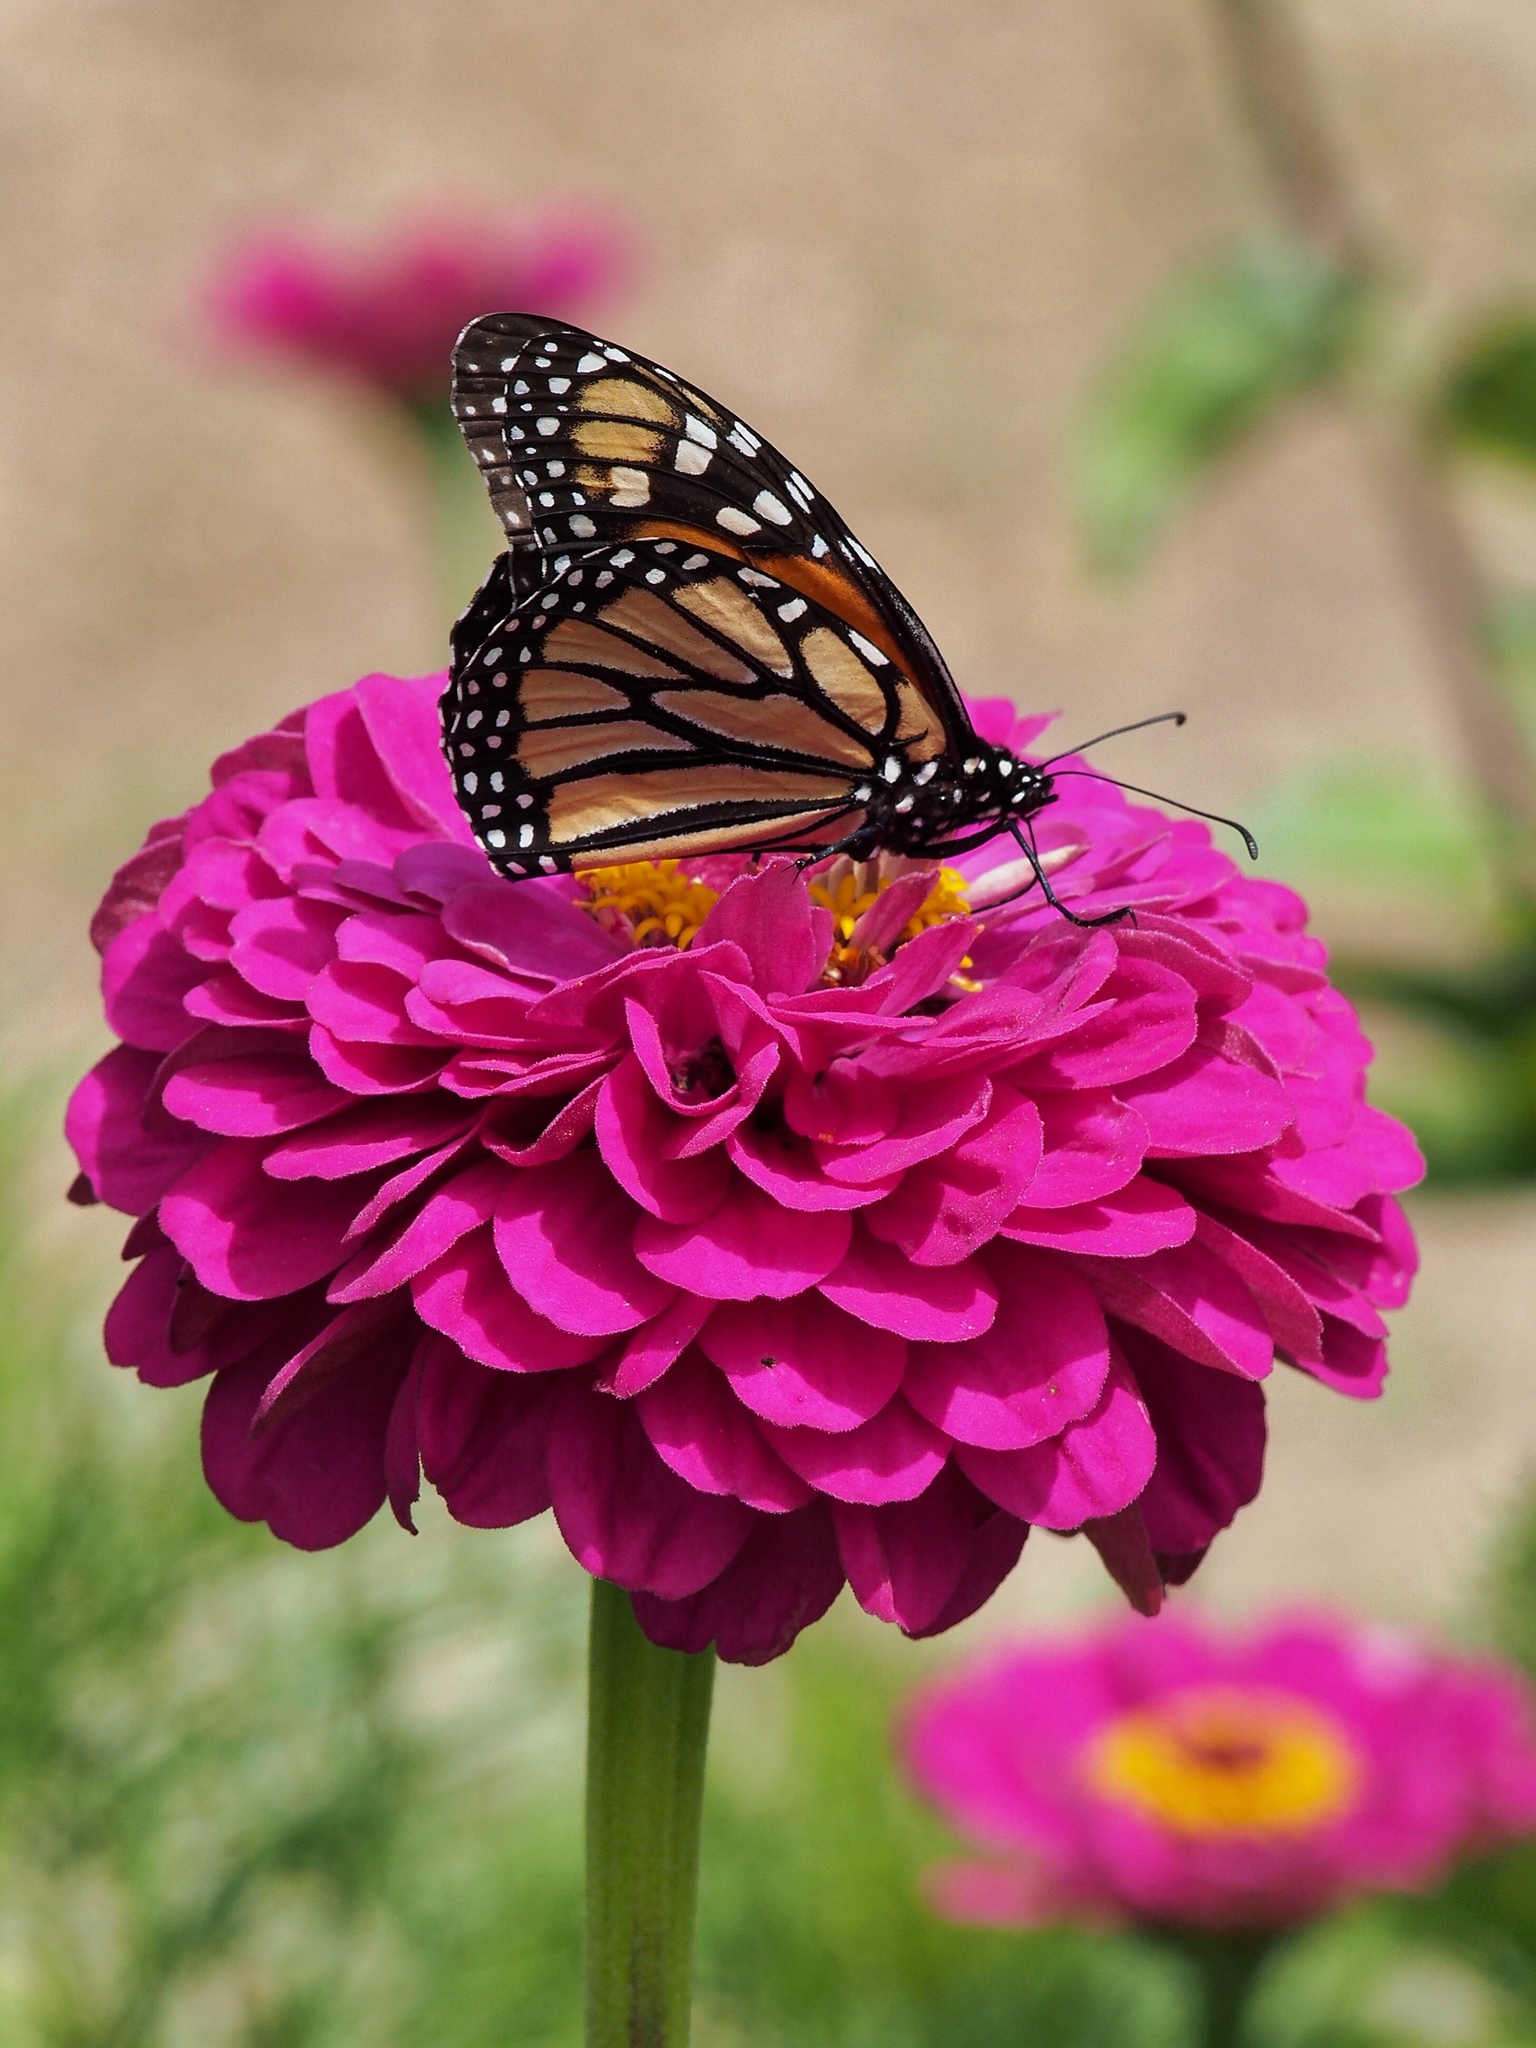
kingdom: Animalia
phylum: Arthropoda
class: Insecta
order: Lepidoptera
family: Nymphalidae
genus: Danaus
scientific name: Danaus plexippus
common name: Monarch
